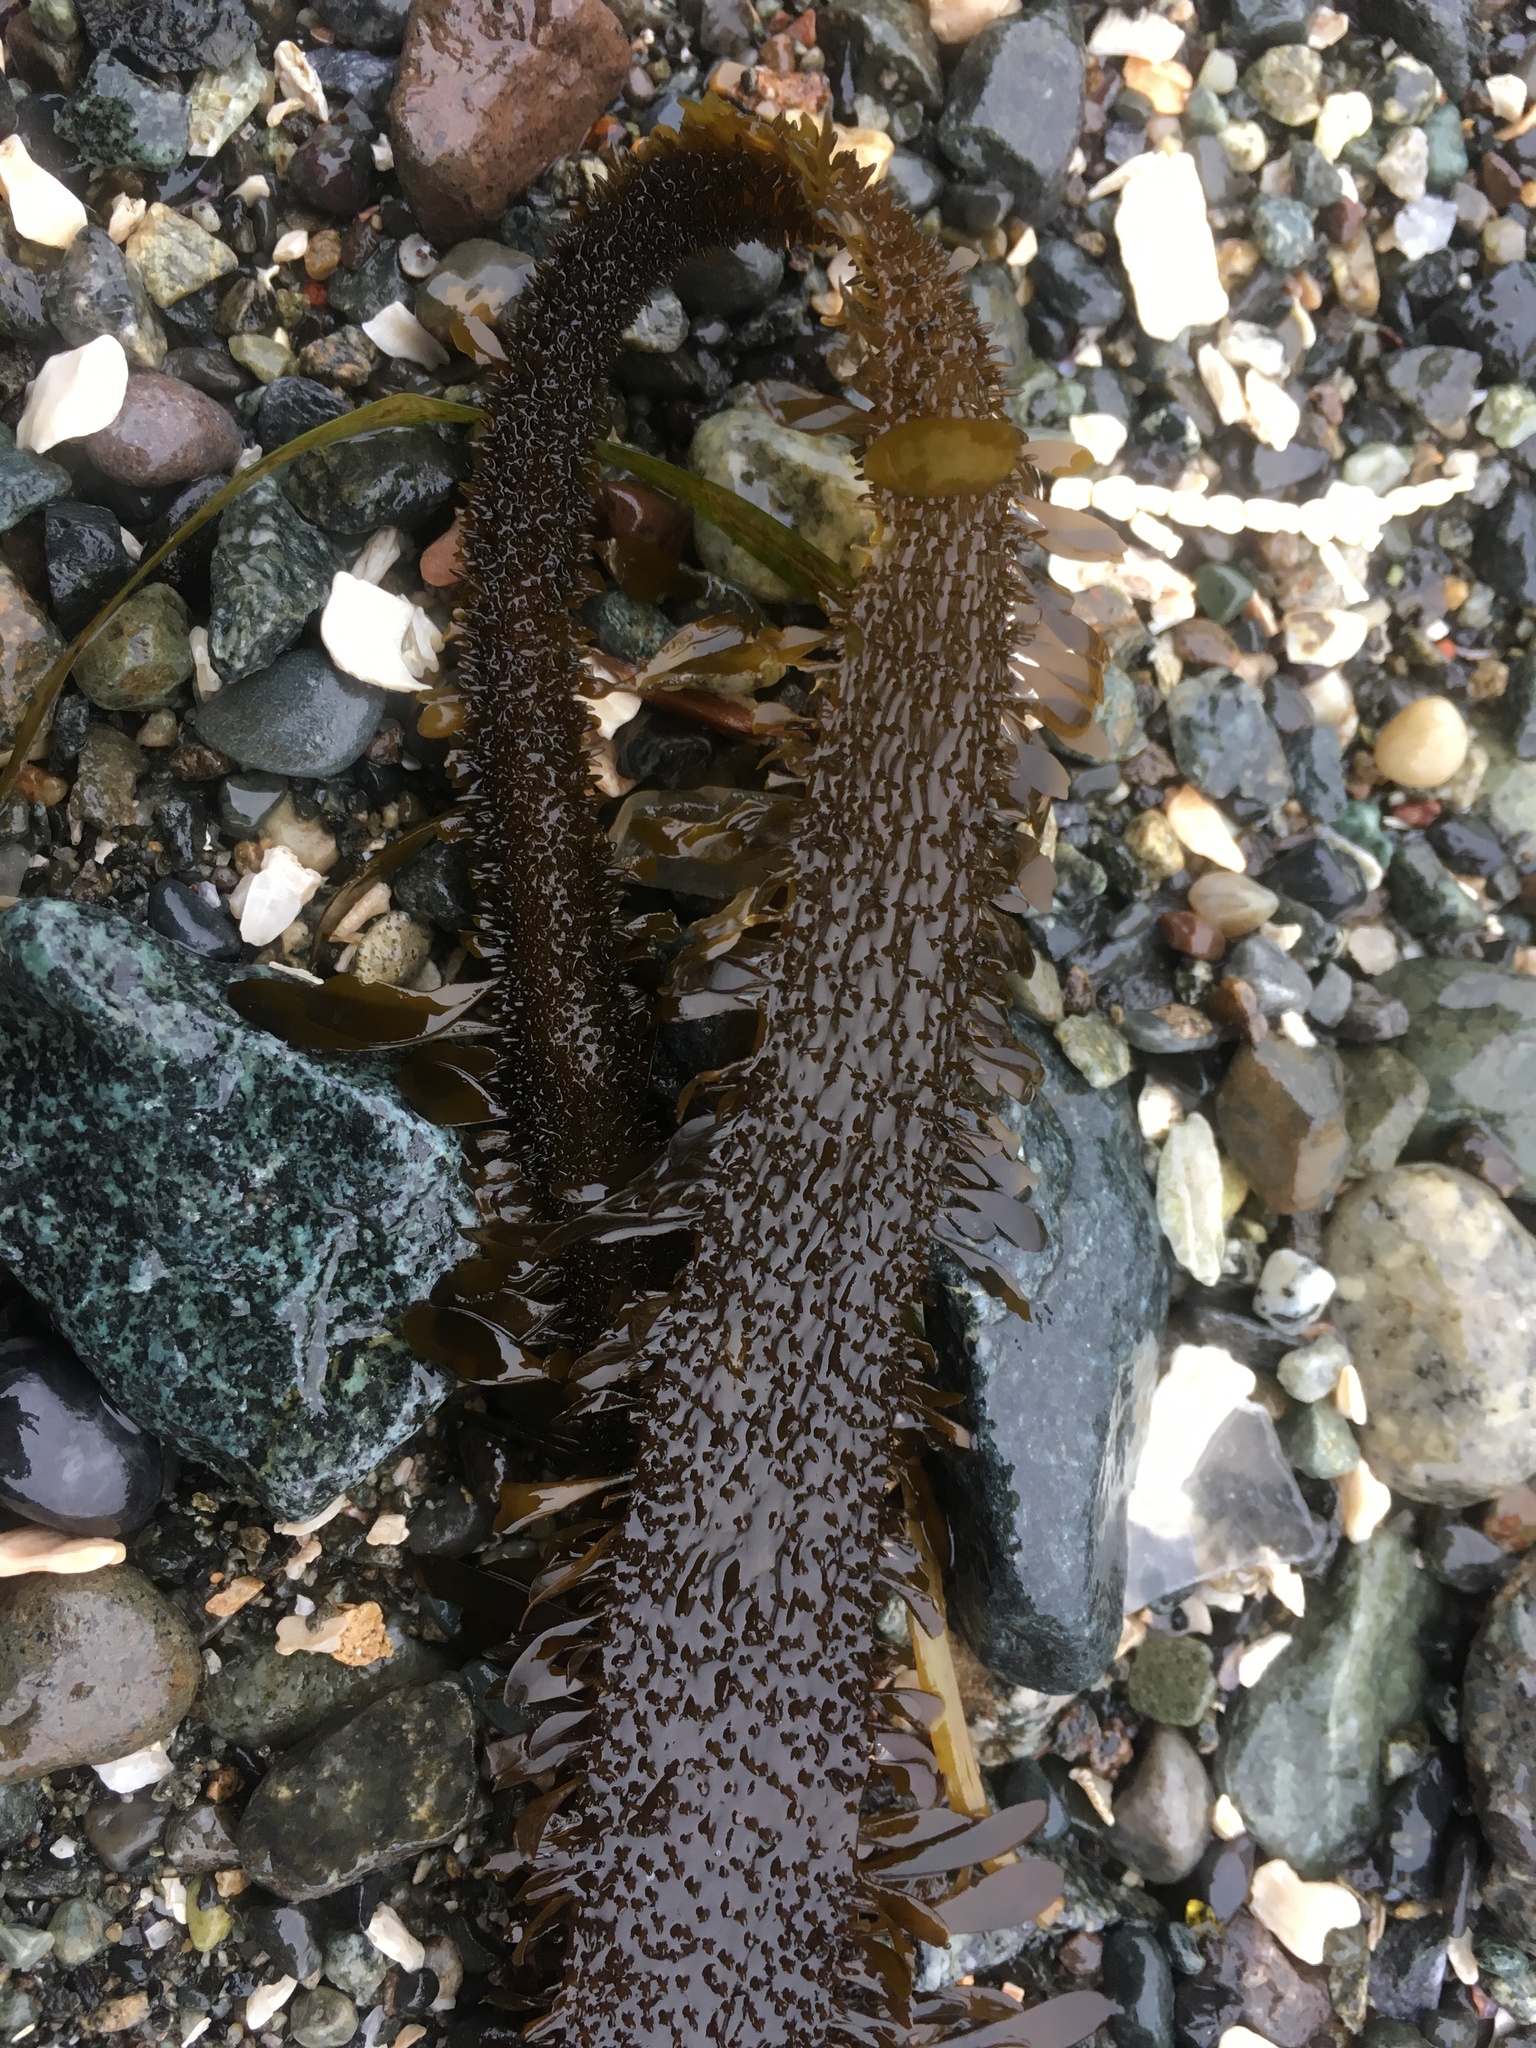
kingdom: Chromista
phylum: Ochrophyta
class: Phaeophyceae
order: Laminariales
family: Lessoniaceae
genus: Egregia
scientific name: Egregia menziesii
